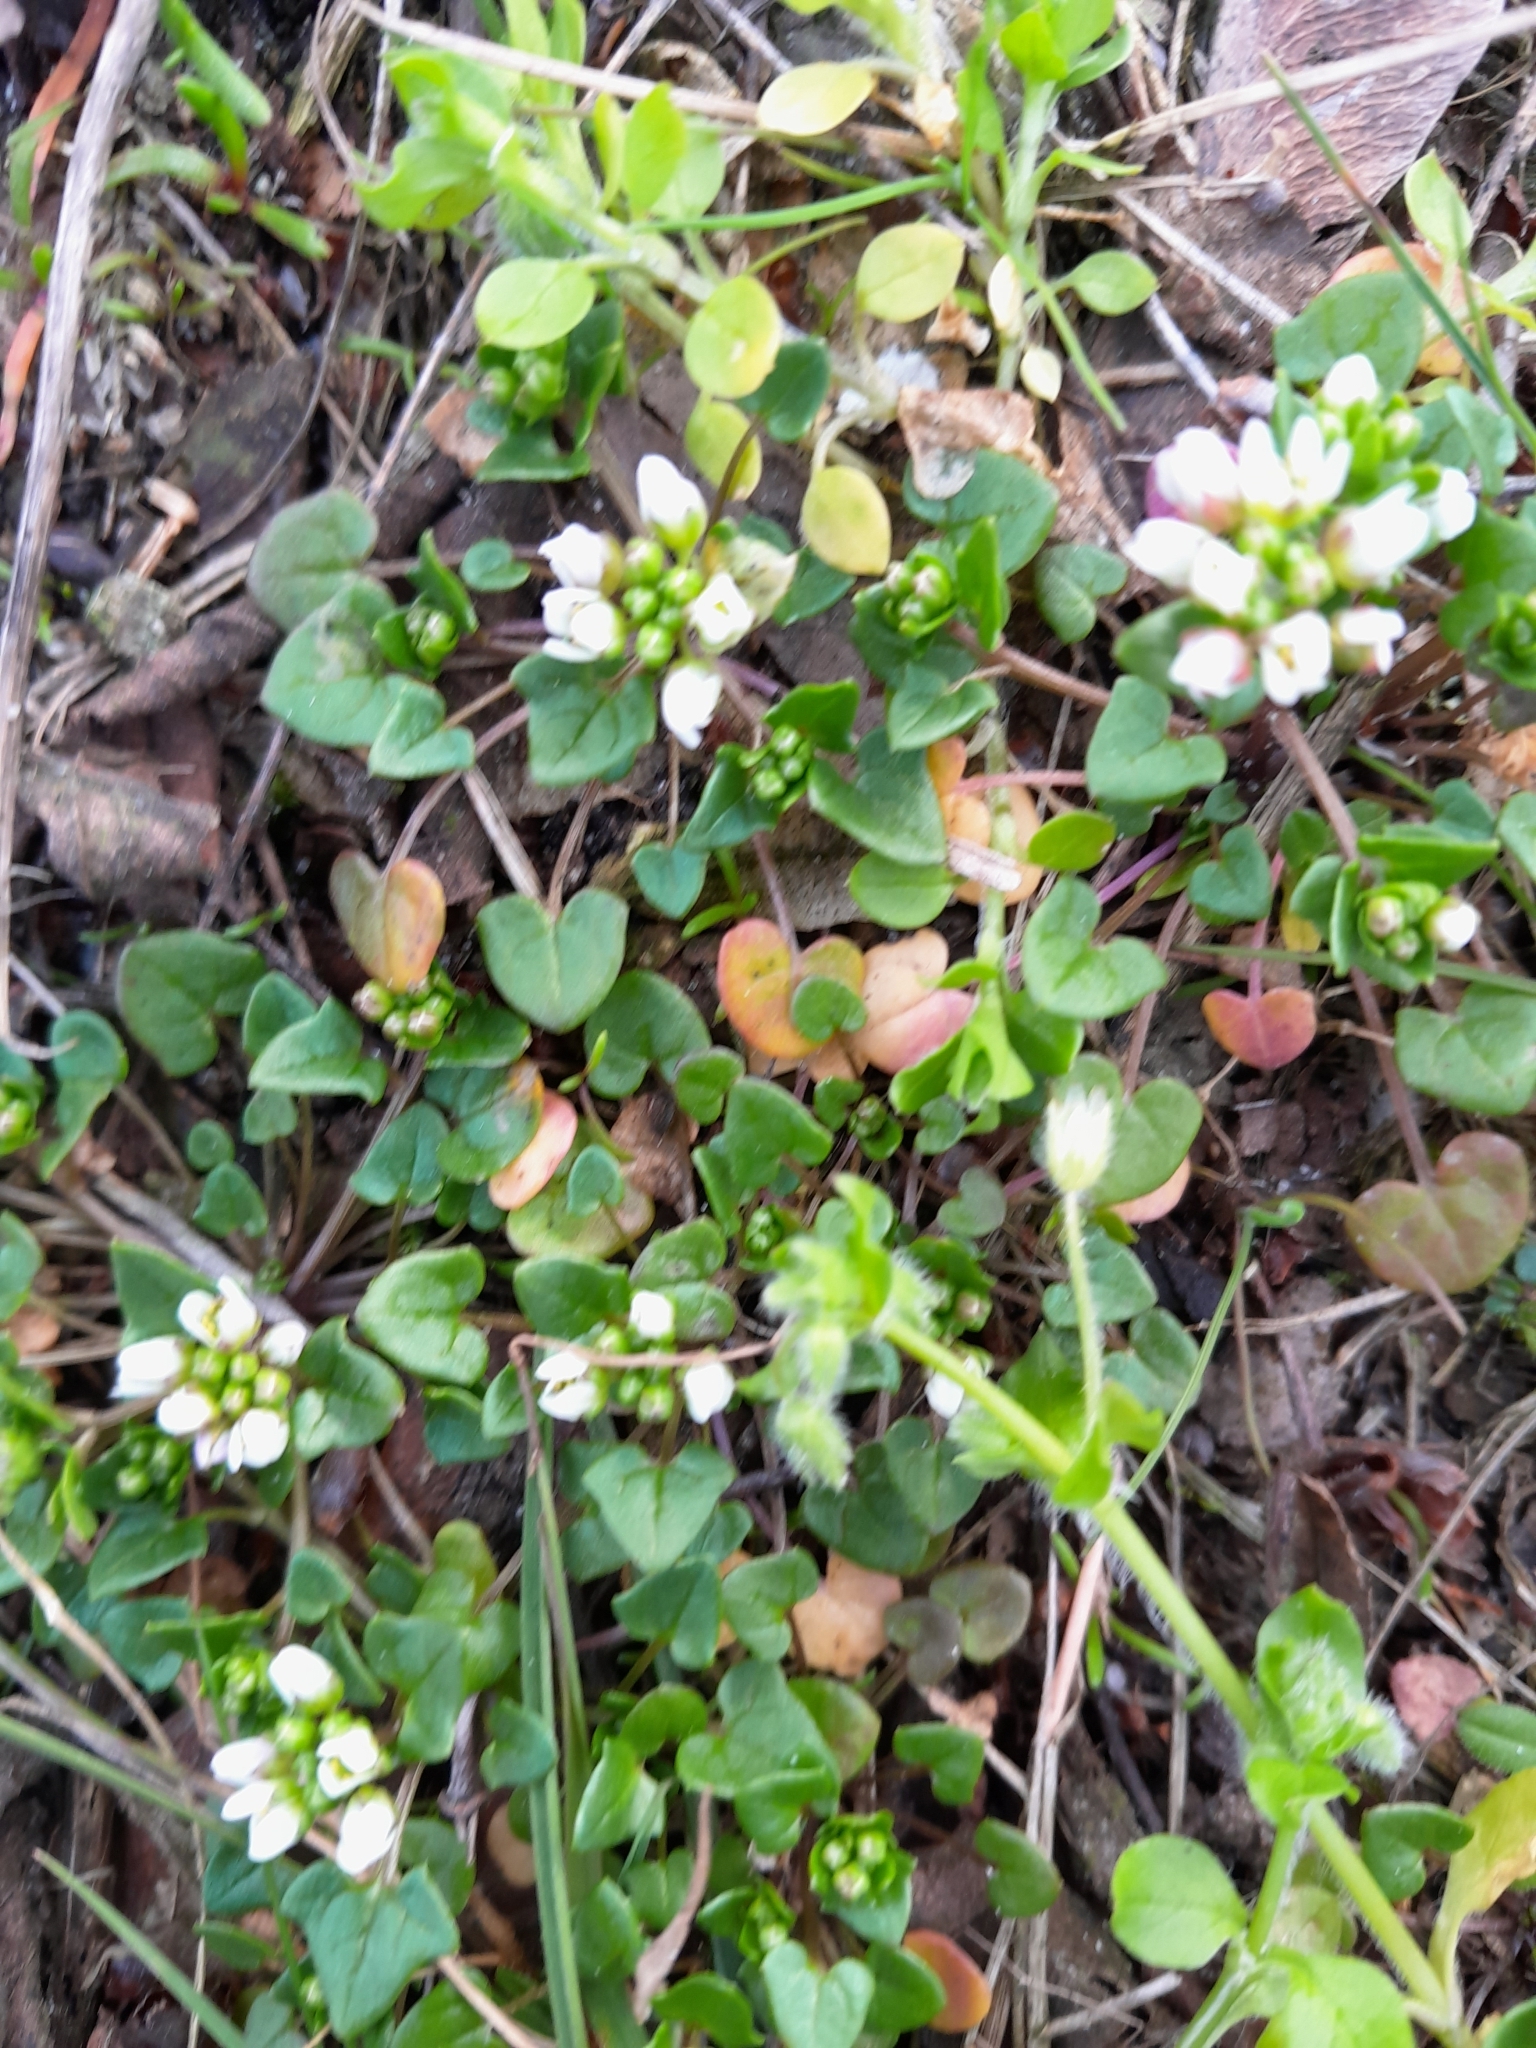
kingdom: Plantae
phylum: Tracheophyta
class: Magnoliopsida
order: Brassicales
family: Brassicaceae
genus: Cochlearia
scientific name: Cochlearia danica
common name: Early scurvygrass
